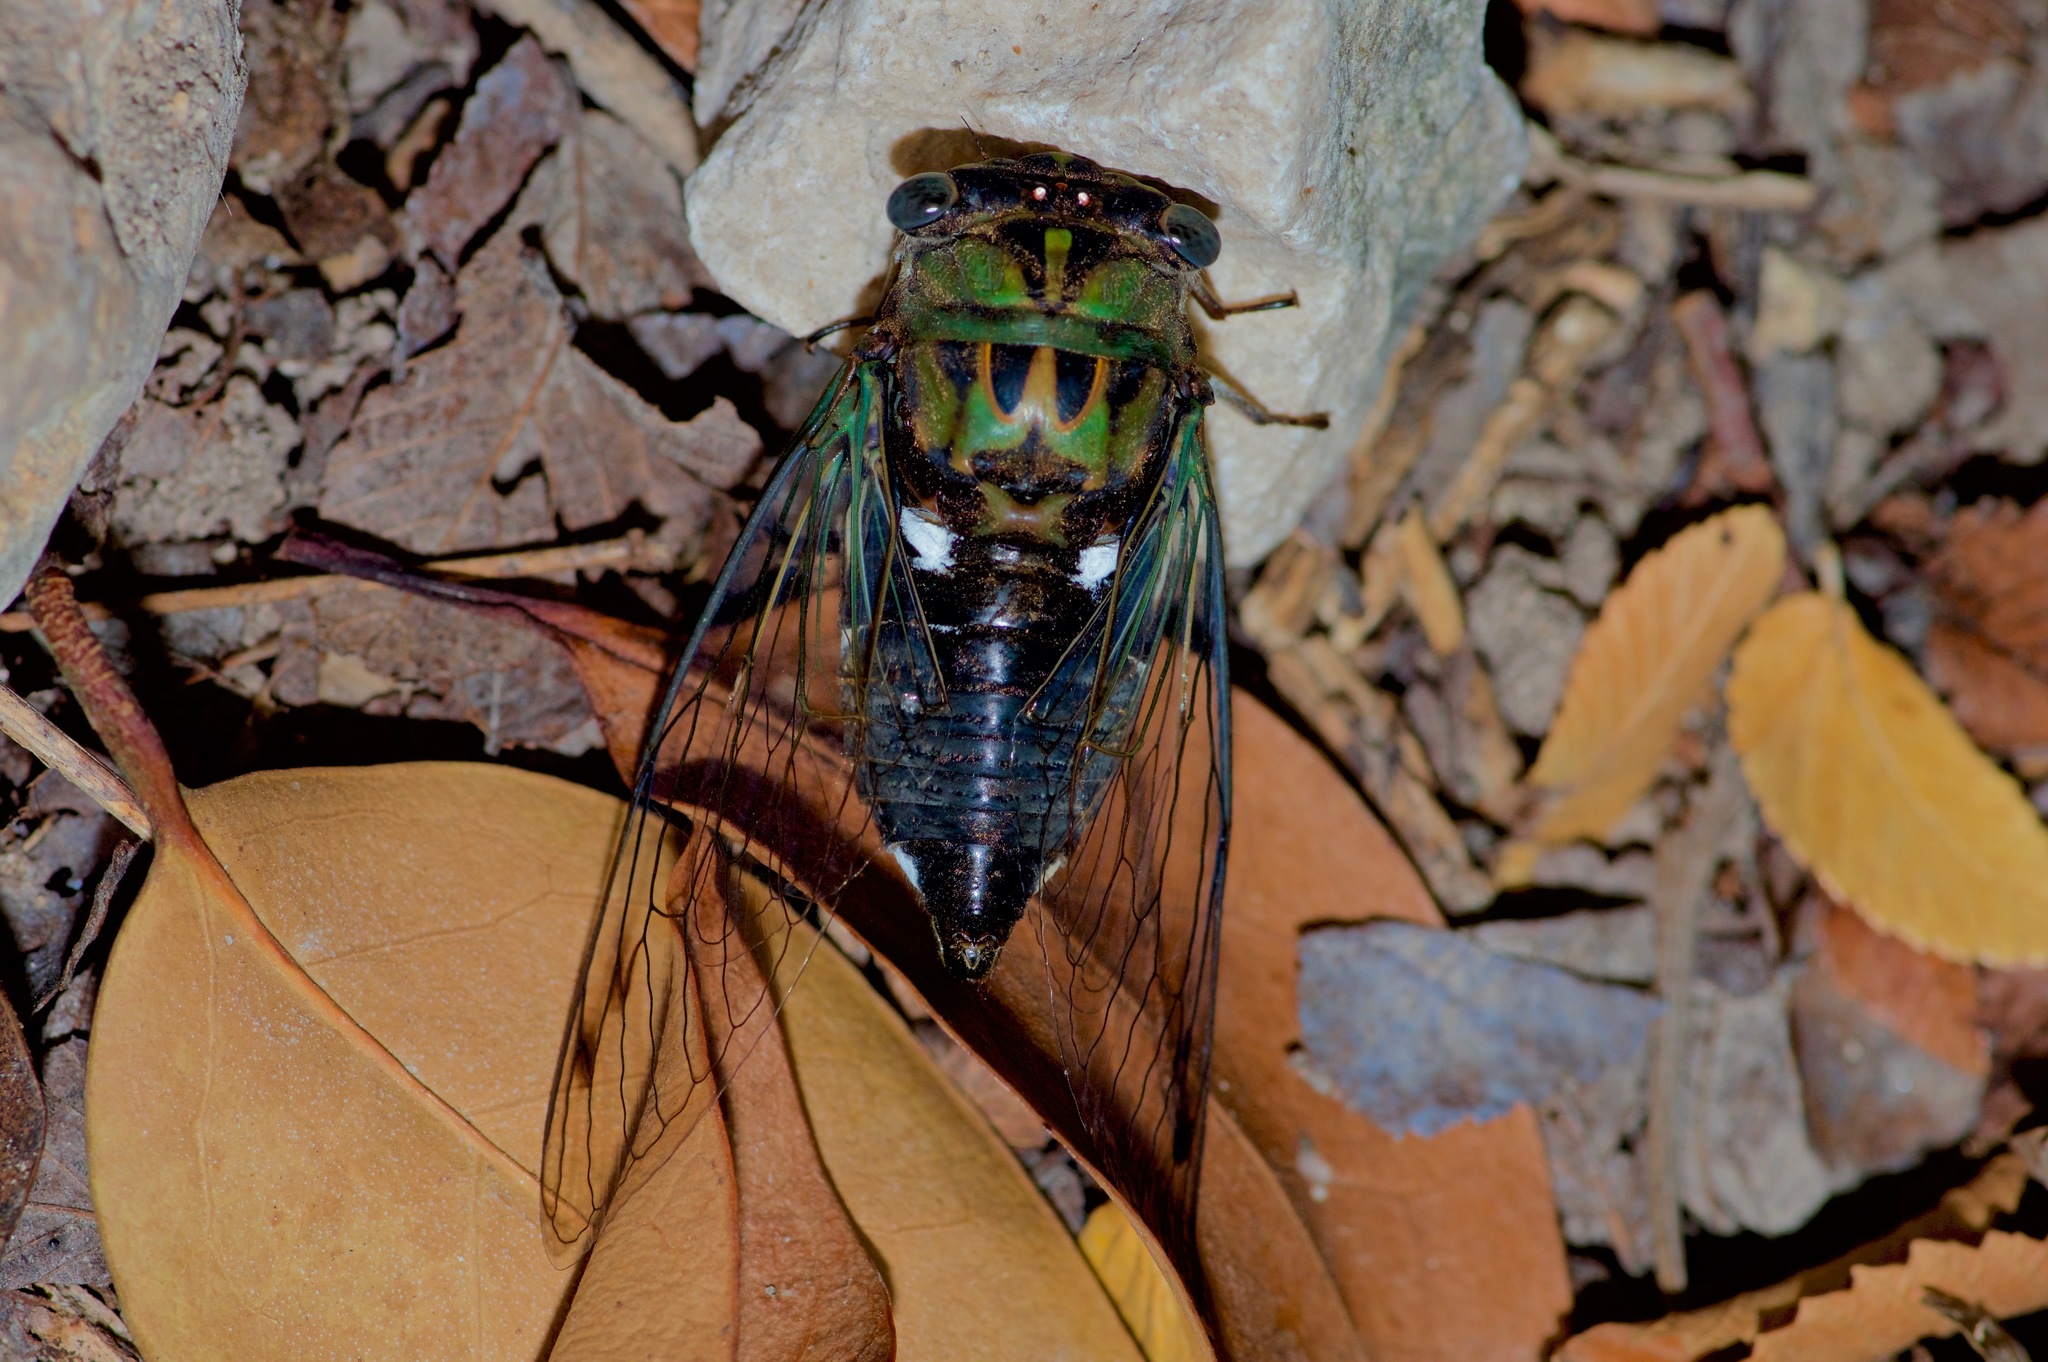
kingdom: Animalia
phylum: Arthropoda
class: Insecta
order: Hemiptera
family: Cicadidae
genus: Neotibicen
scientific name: Neotibicen pruinosus
